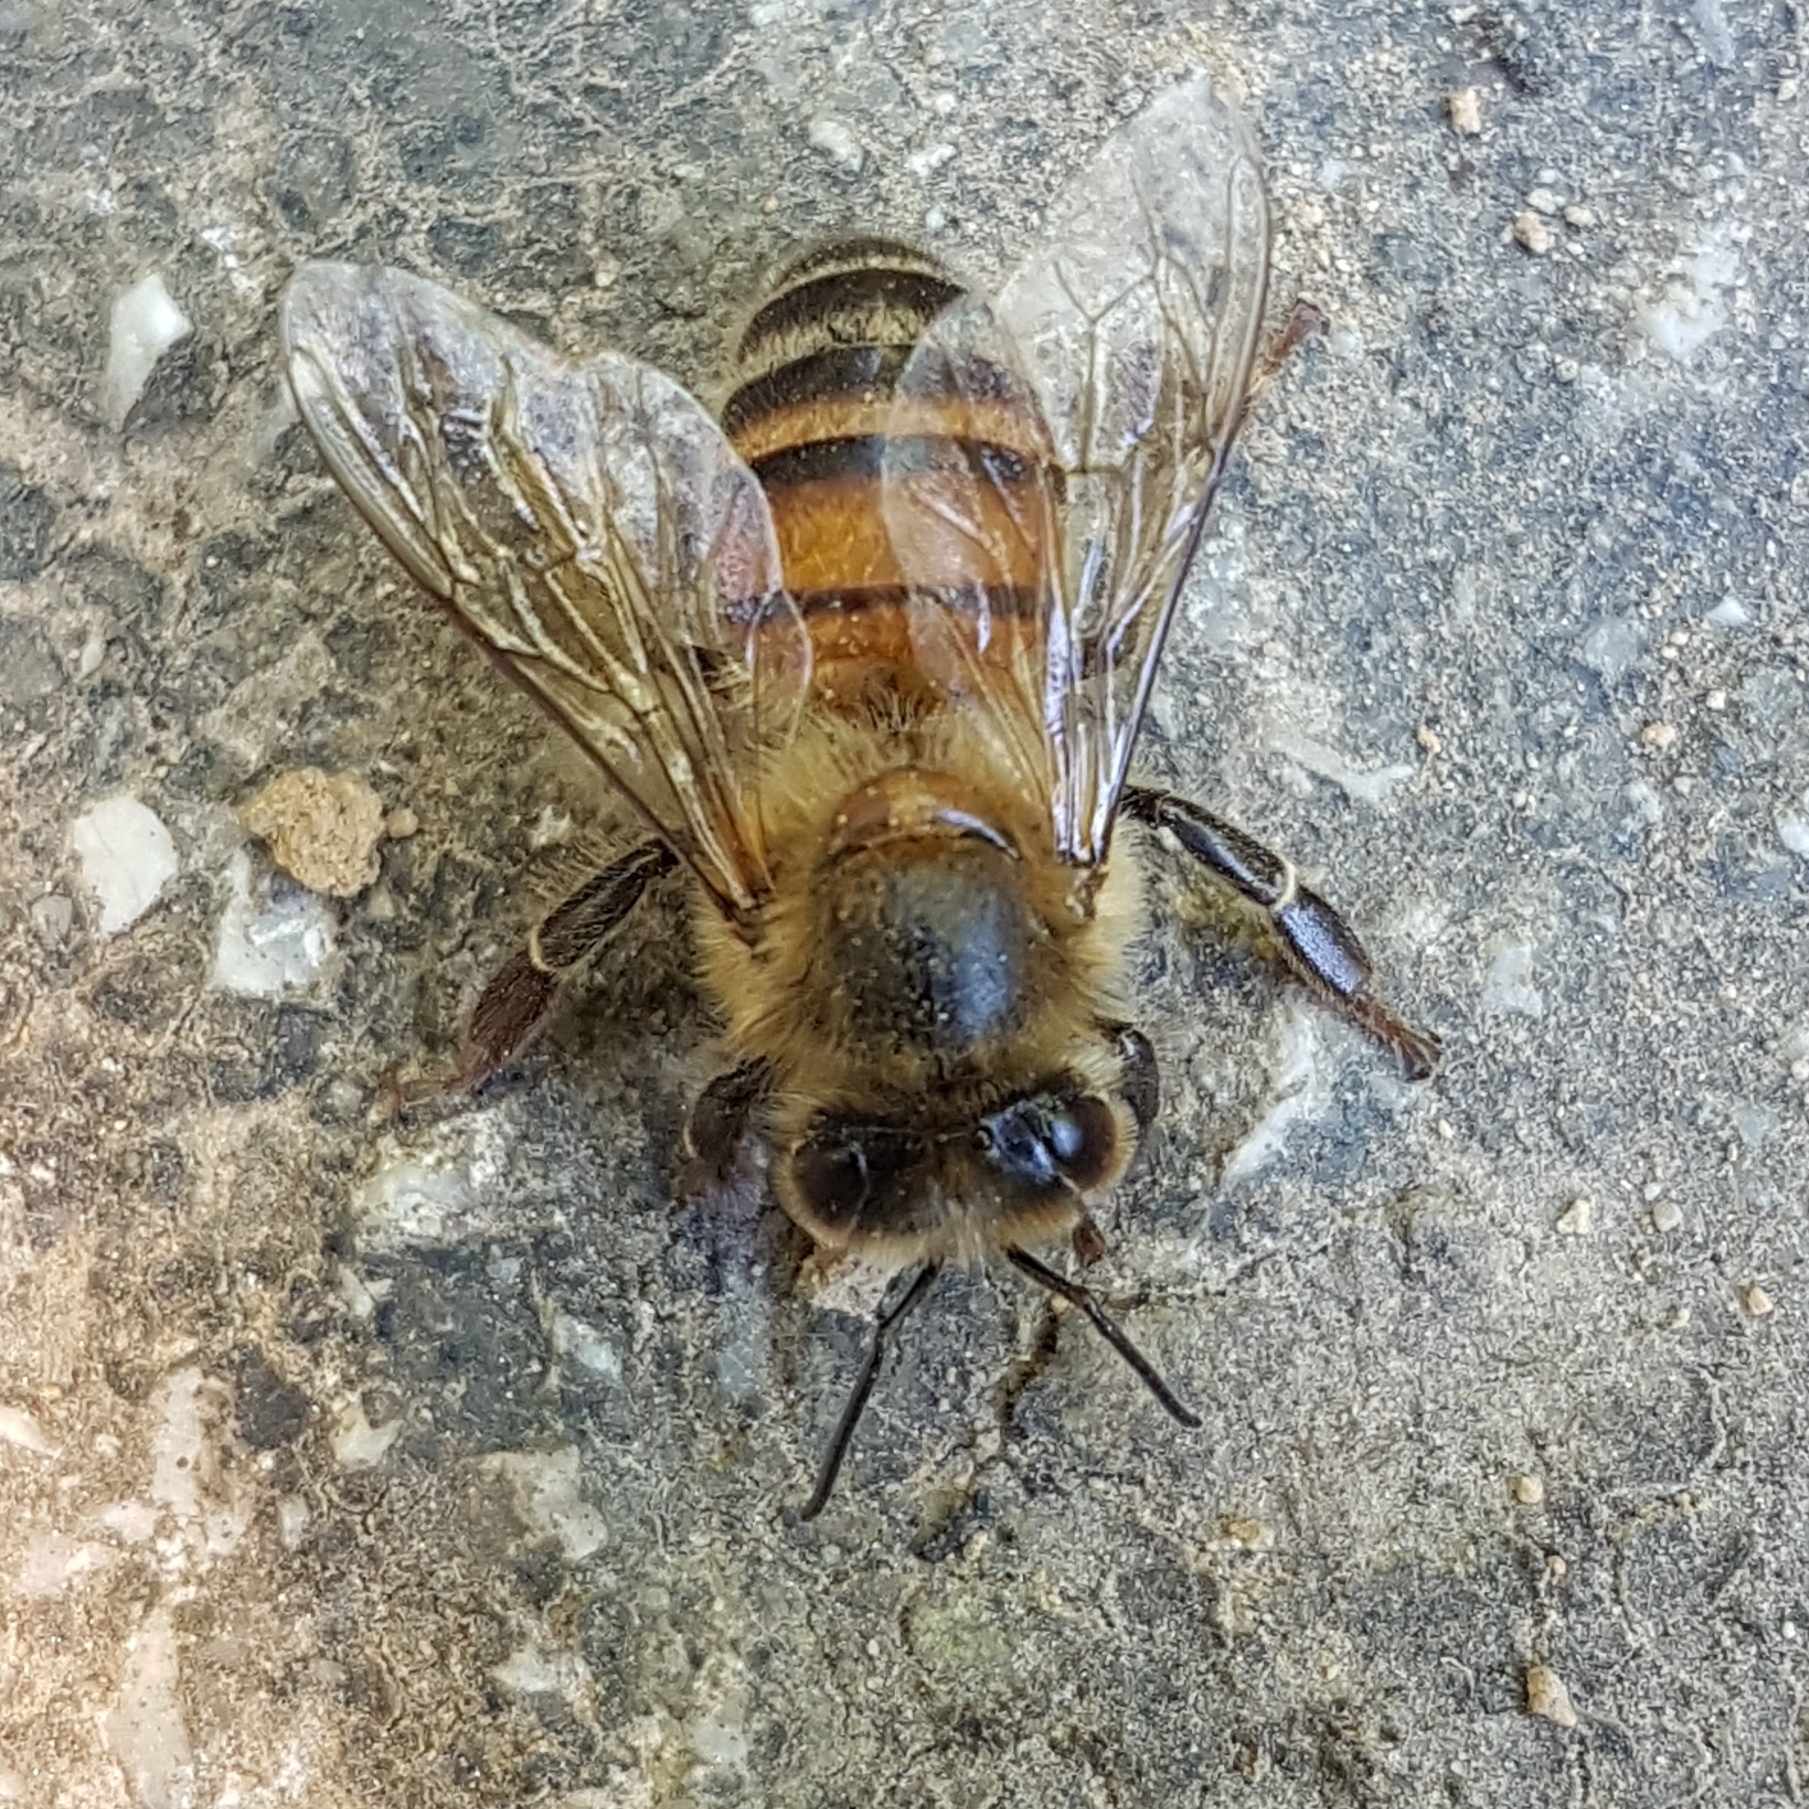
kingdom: Animalia
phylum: Arthropoda
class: Insecta
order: Hymenoptera
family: Apidae
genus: Apis
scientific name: Apis mellifera
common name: Honey bee
